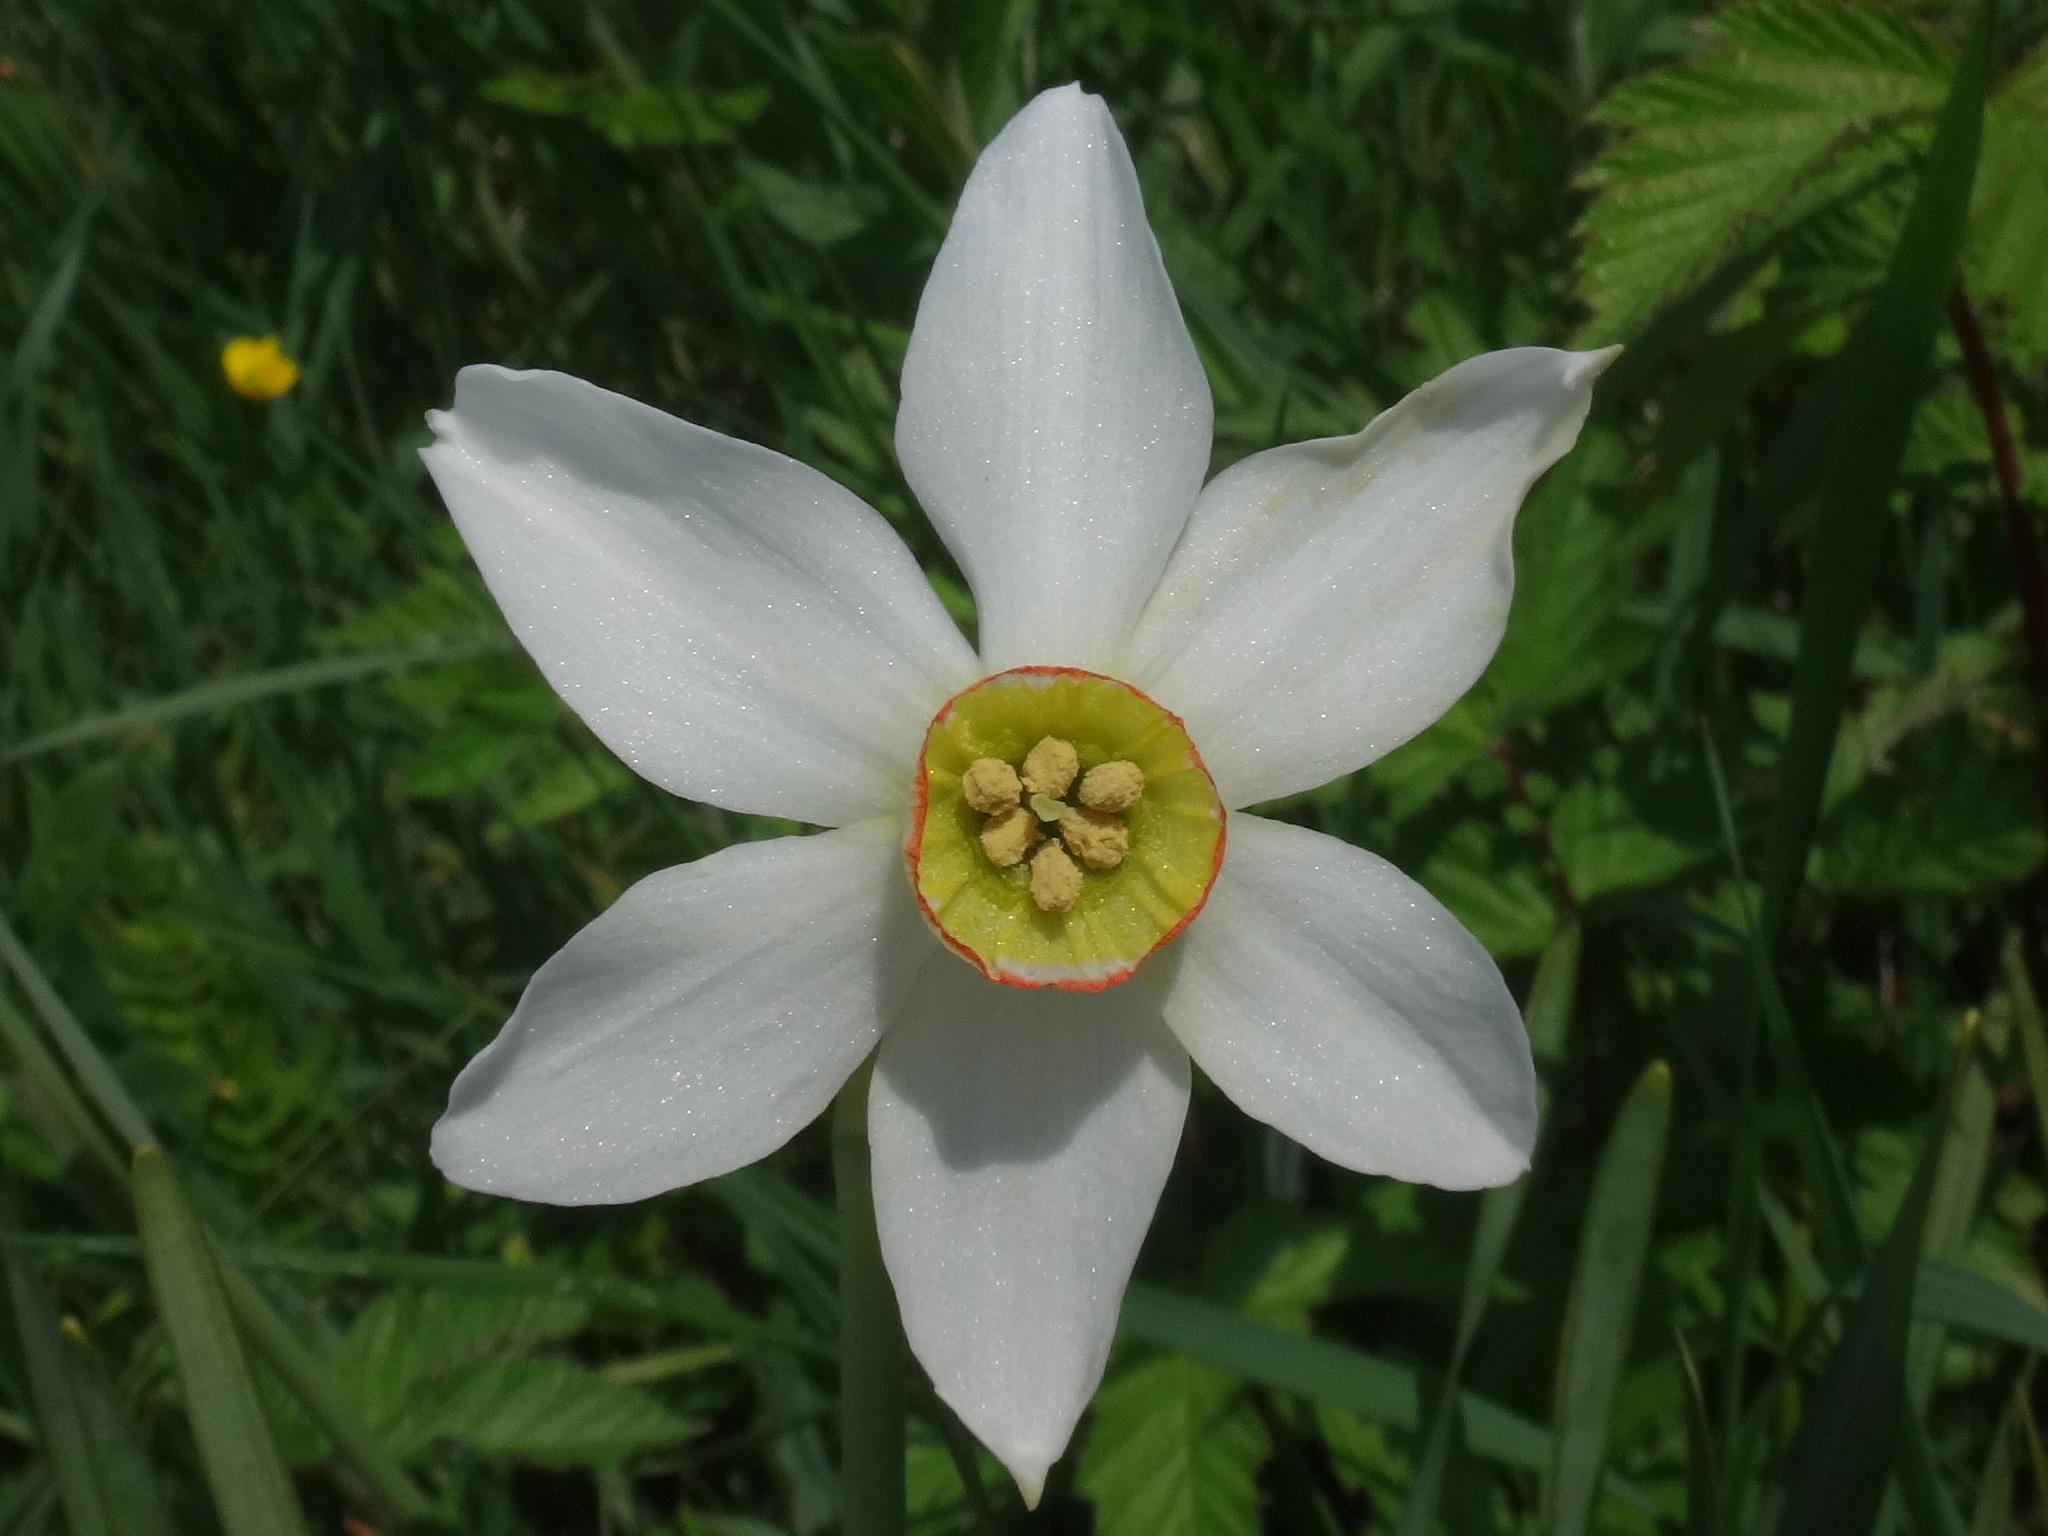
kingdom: Plantae
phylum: Tracheophyta
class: Liliopsida
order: Asparagales
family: Amaryllidaceae
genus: Narcissus
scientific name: Narcissus poeticus
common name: Pheasant's-eye daffodil
